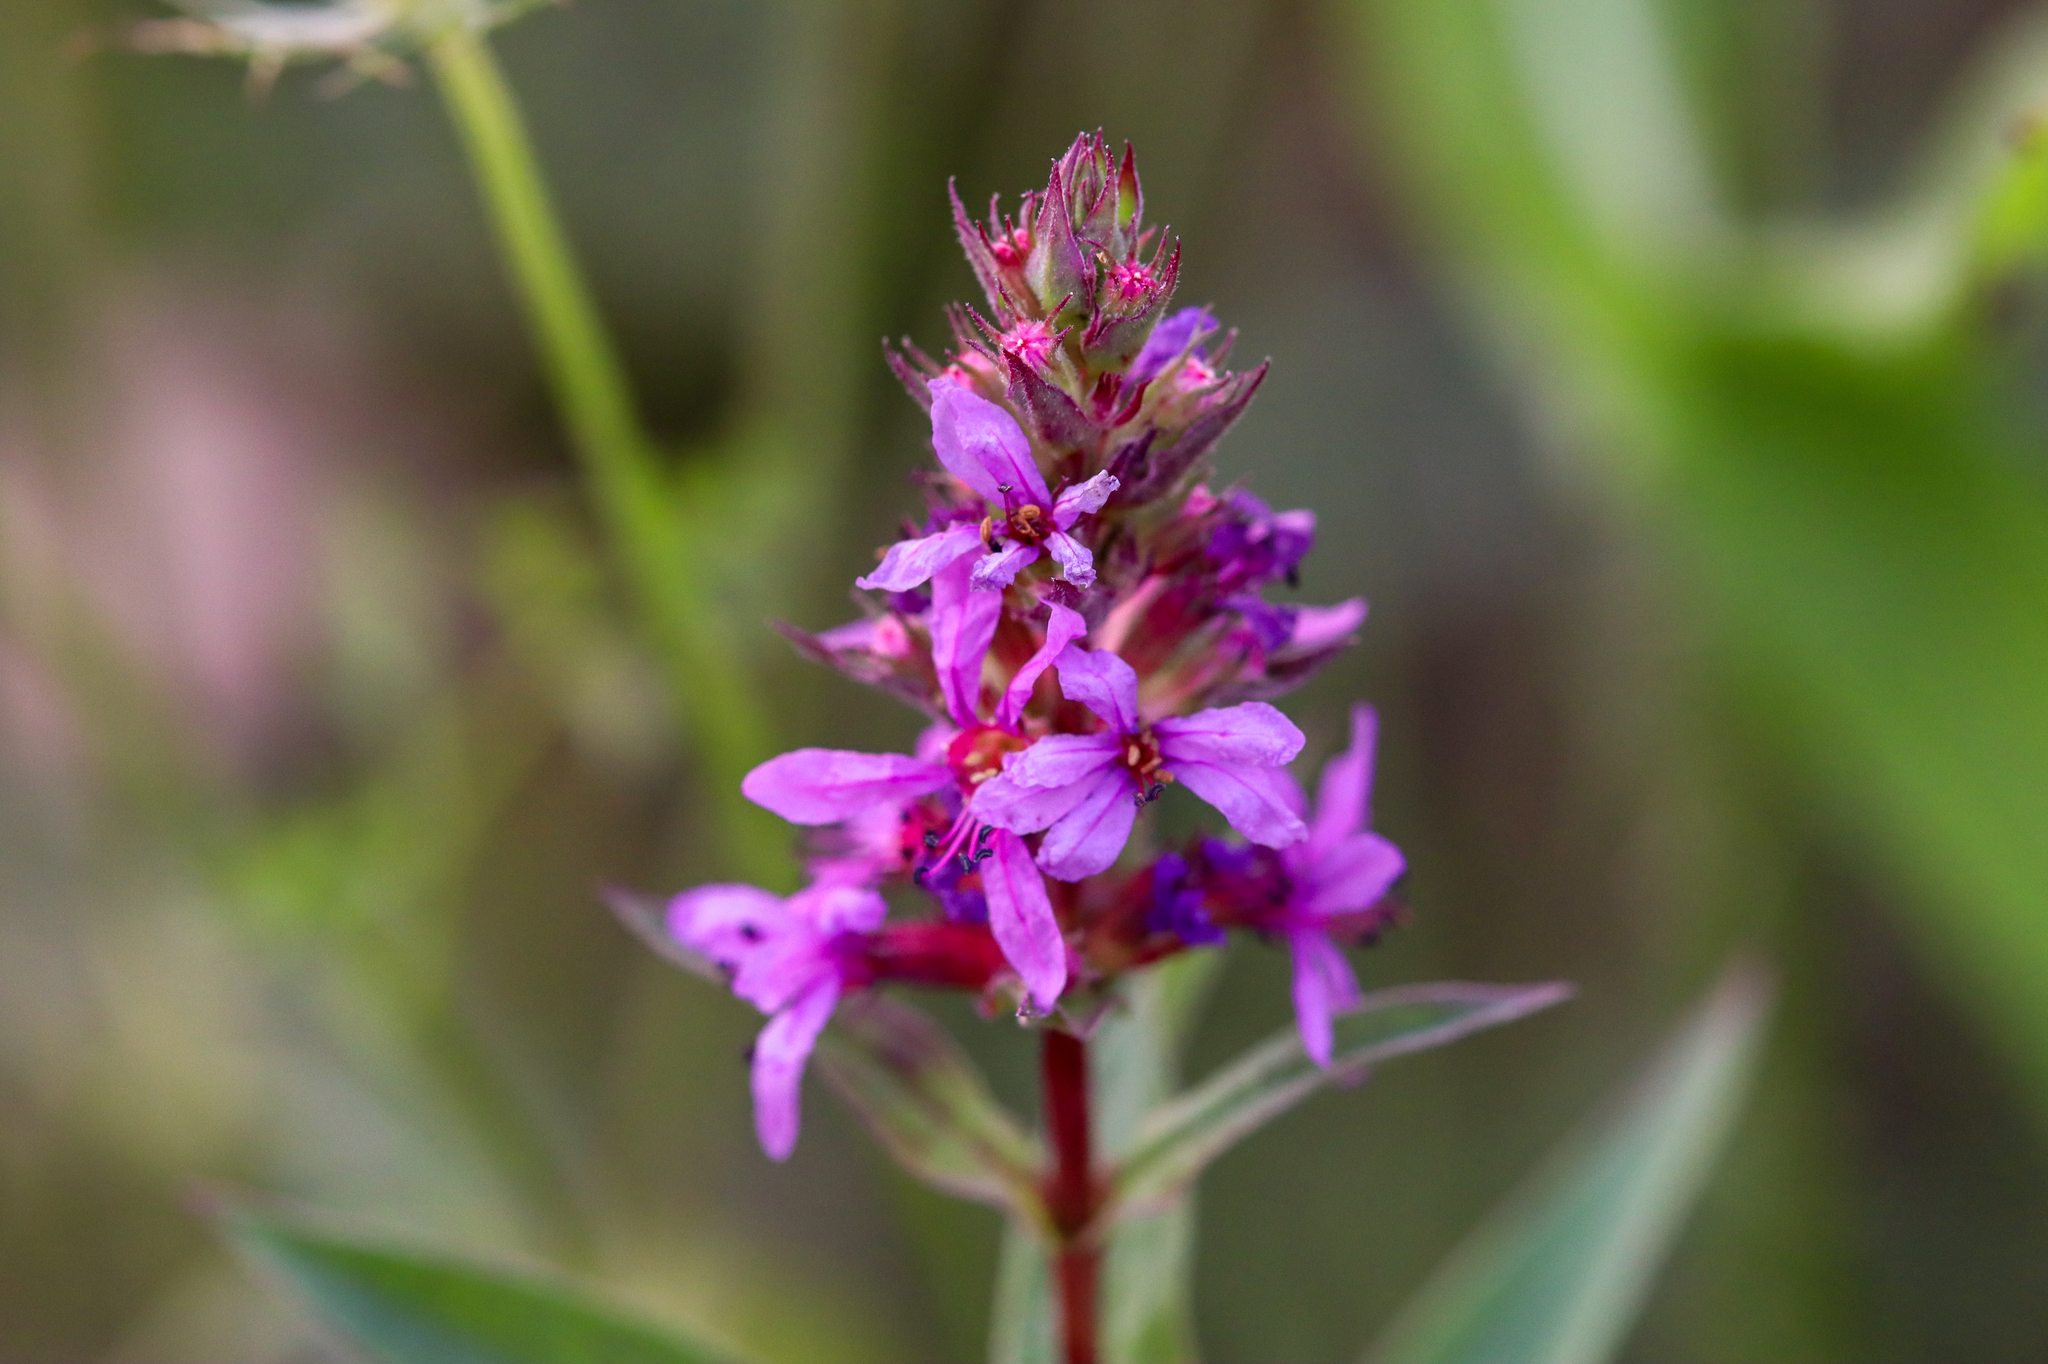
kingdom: Plantae
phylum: Tracheophyta
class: Magnoliopsida
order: Myrtales
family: Lythraceae
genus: Lythrum
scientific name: Lythrum salicaria
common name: Purple loosestrife
